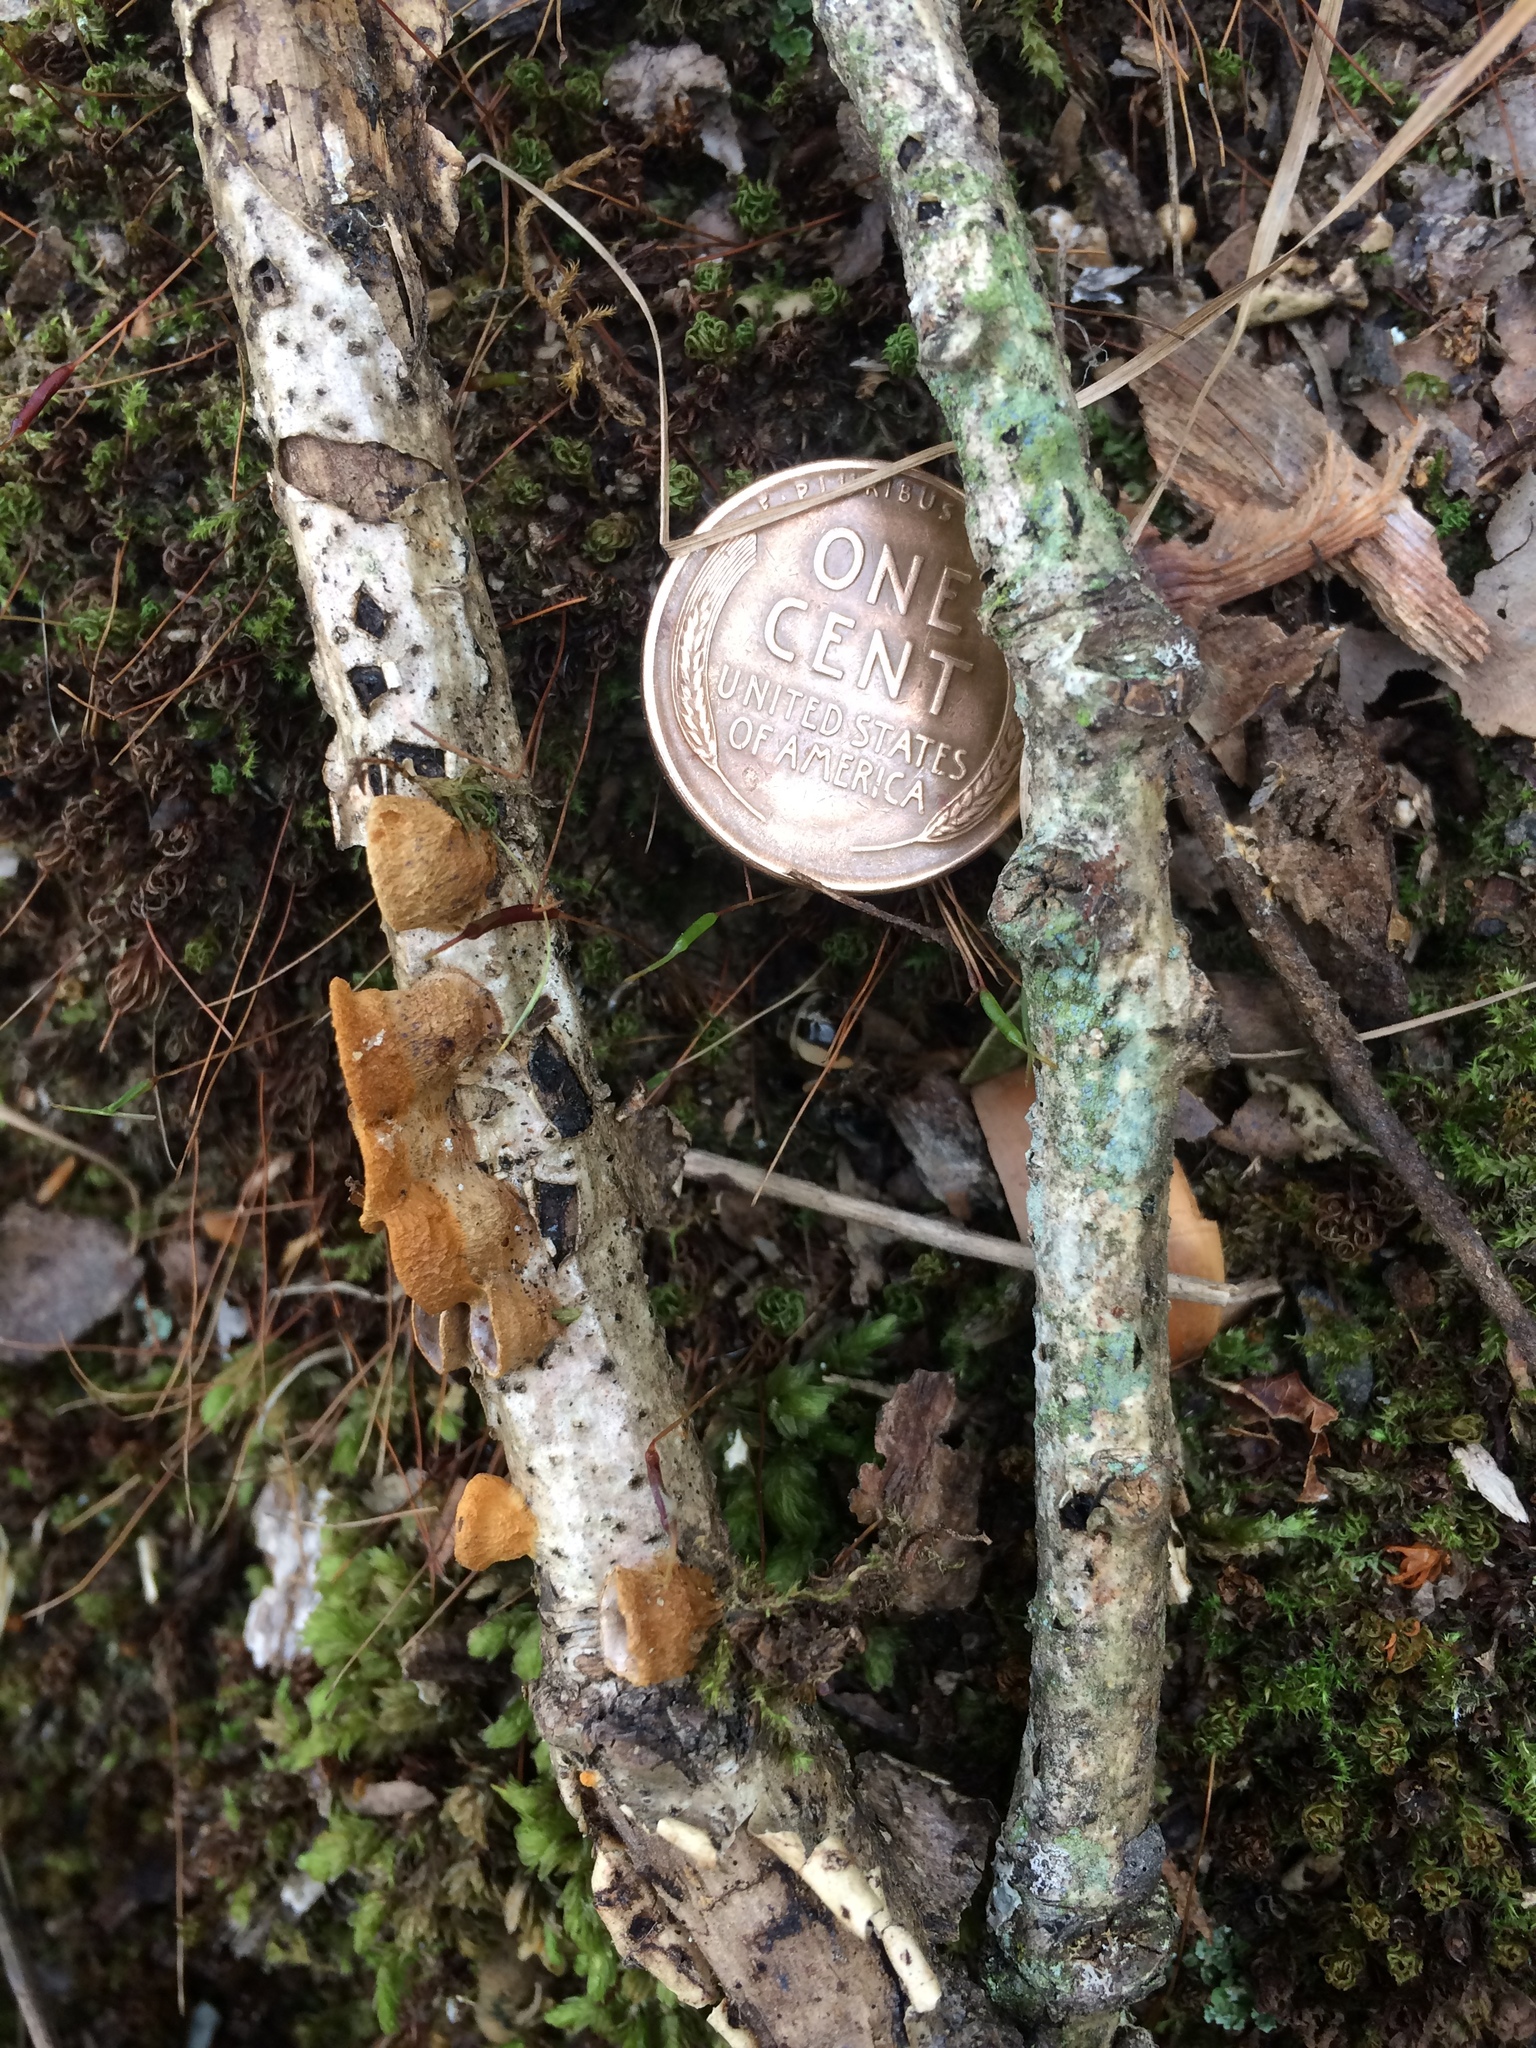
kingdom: Fungi
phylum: Basidiomycota
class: Agaricomycetes
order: Agaricales
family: Nidulariaceae
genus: Crucibulum
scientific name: Crucibulum laeve
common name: Common bird's nest
